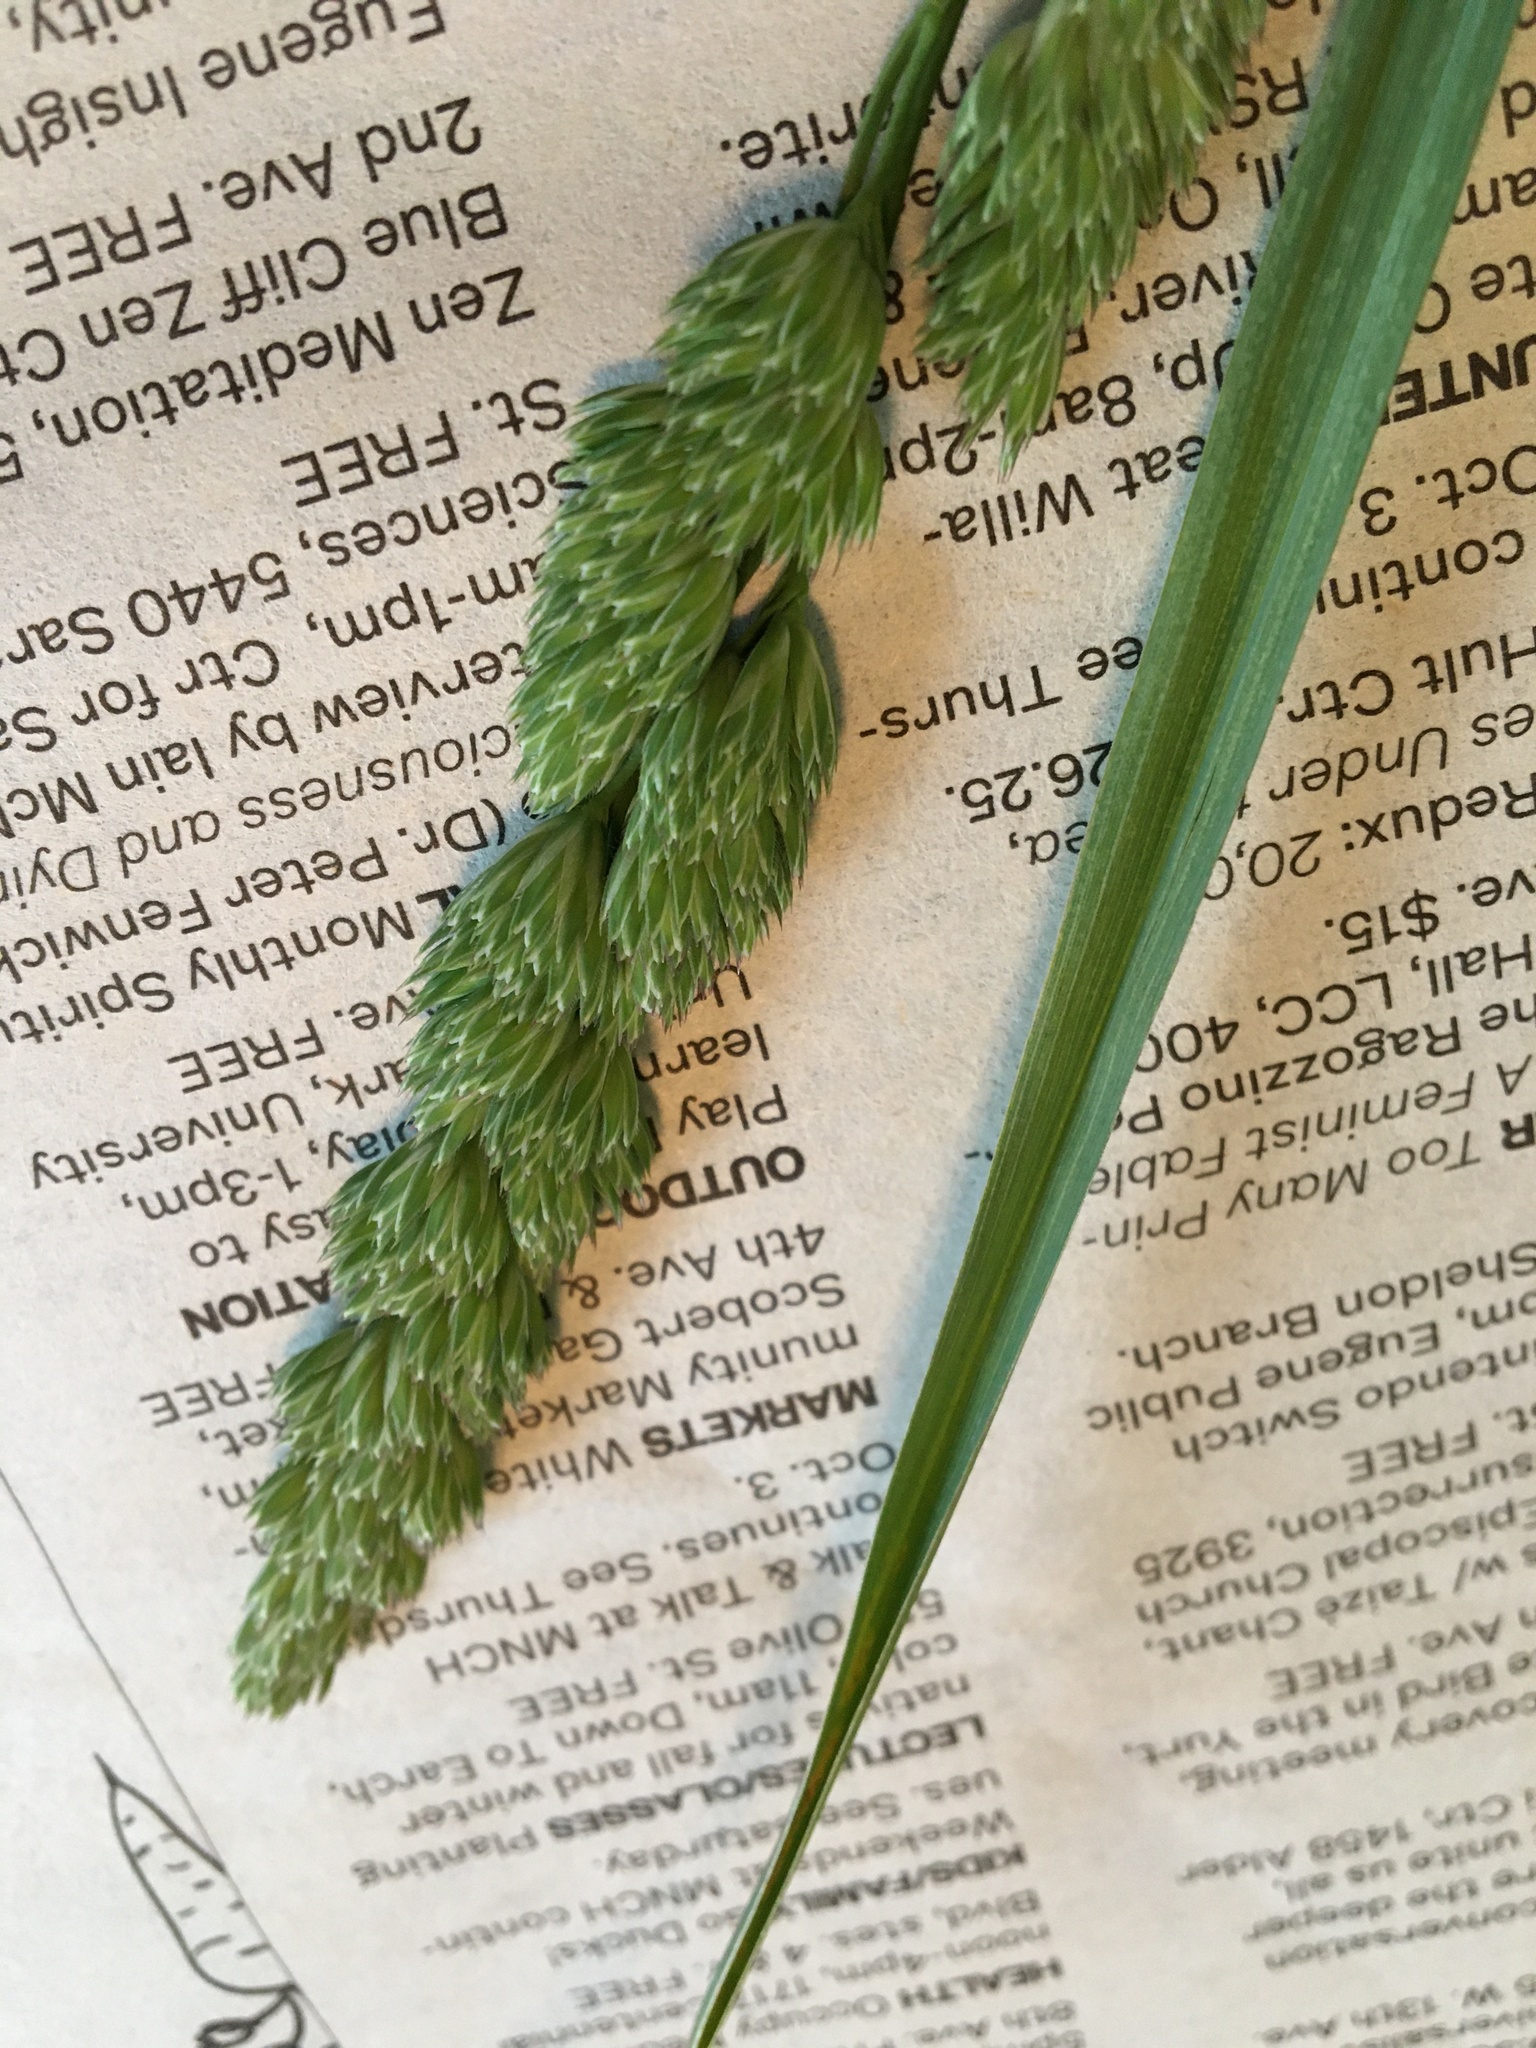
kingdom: Plantae
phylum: Tracheophyta
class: Liliopsida
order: Poales
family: Poaceae
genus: Dactylis
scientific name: Dactylis glomerata
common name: Orchardgrass
